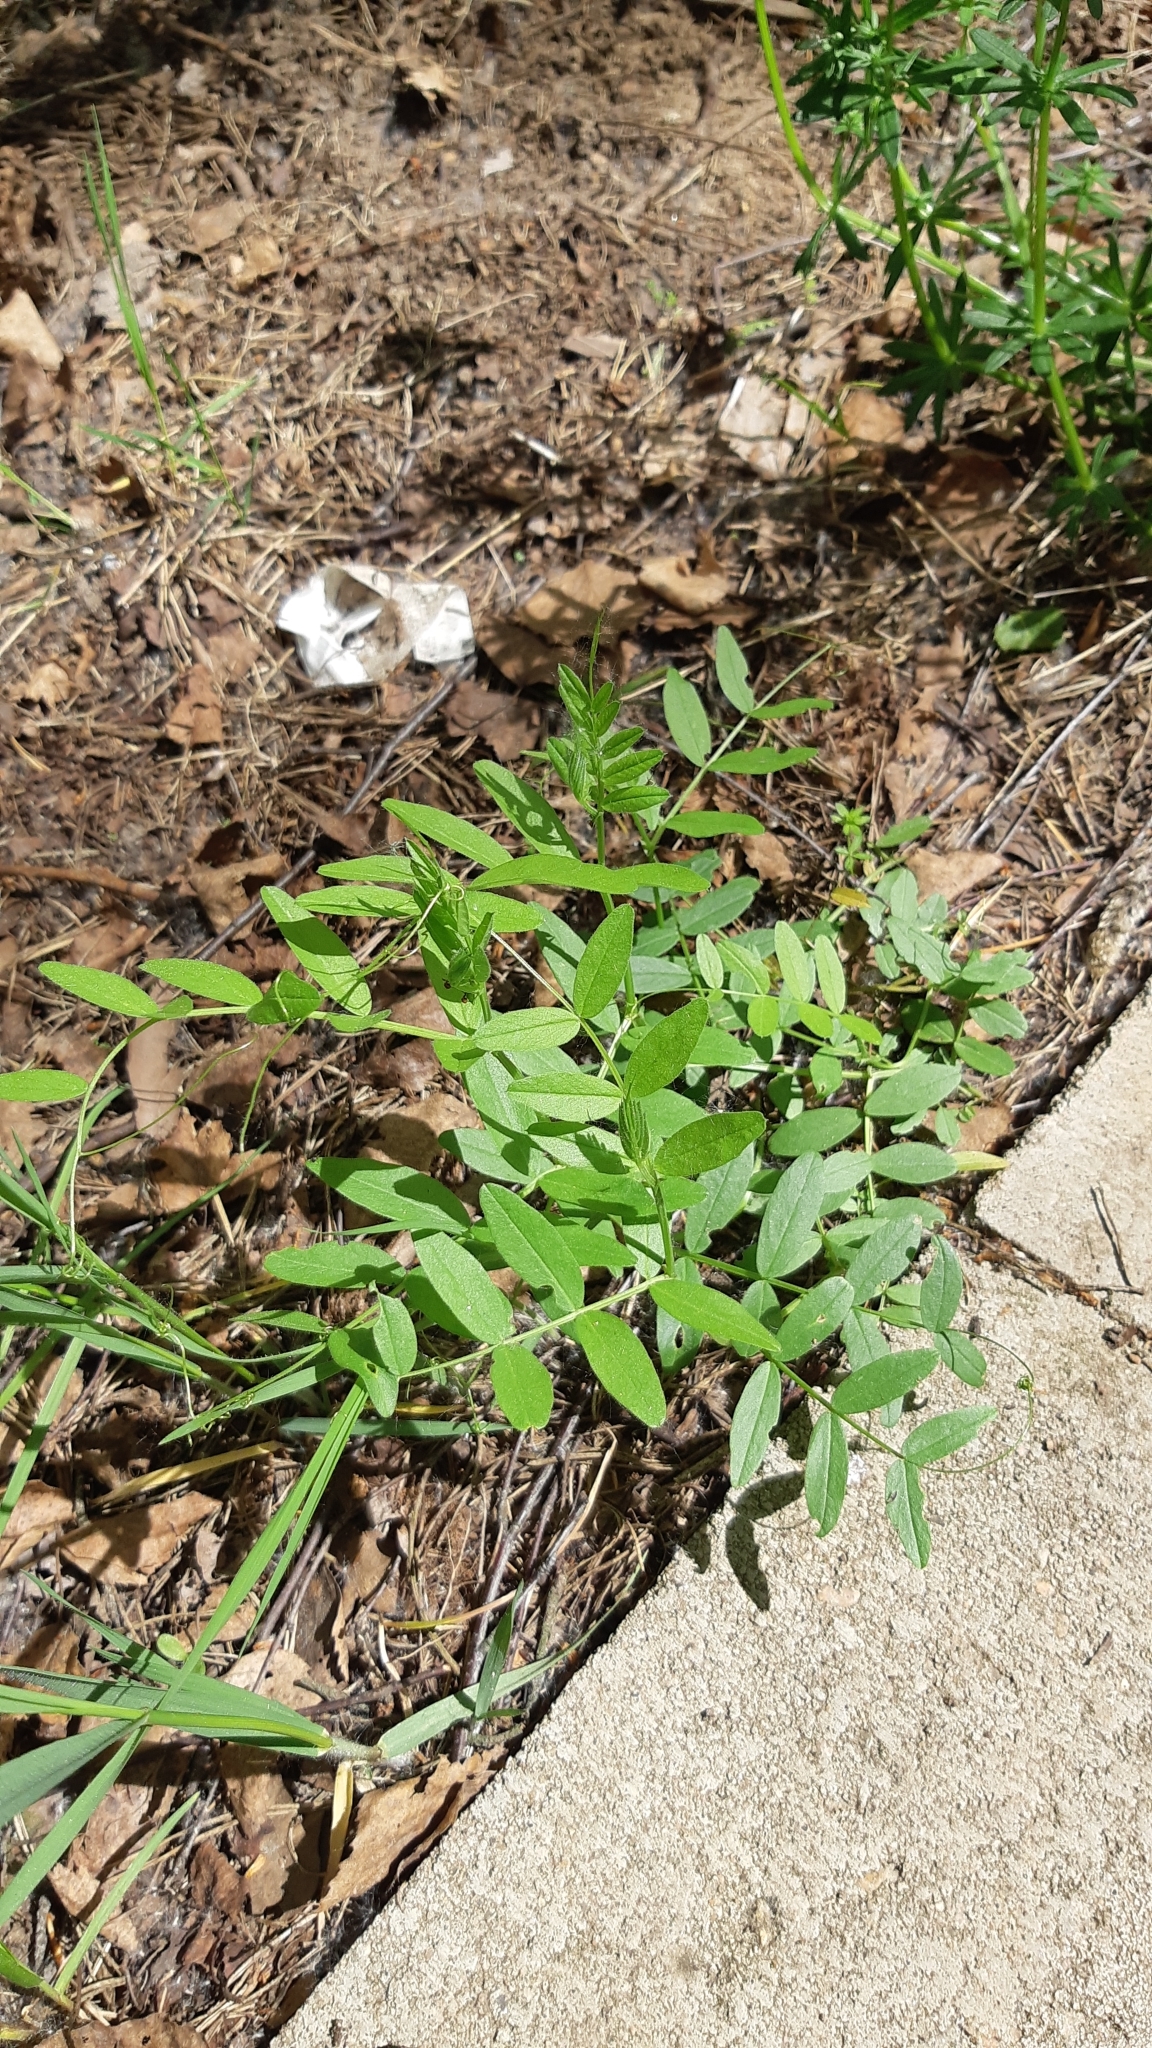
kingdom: Plantae
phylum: Tracheophyta
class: Magnoliopsida
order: Fabales
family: Fabaceae
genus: Vicia
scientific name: Vicia sepium
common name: Bush vetch
